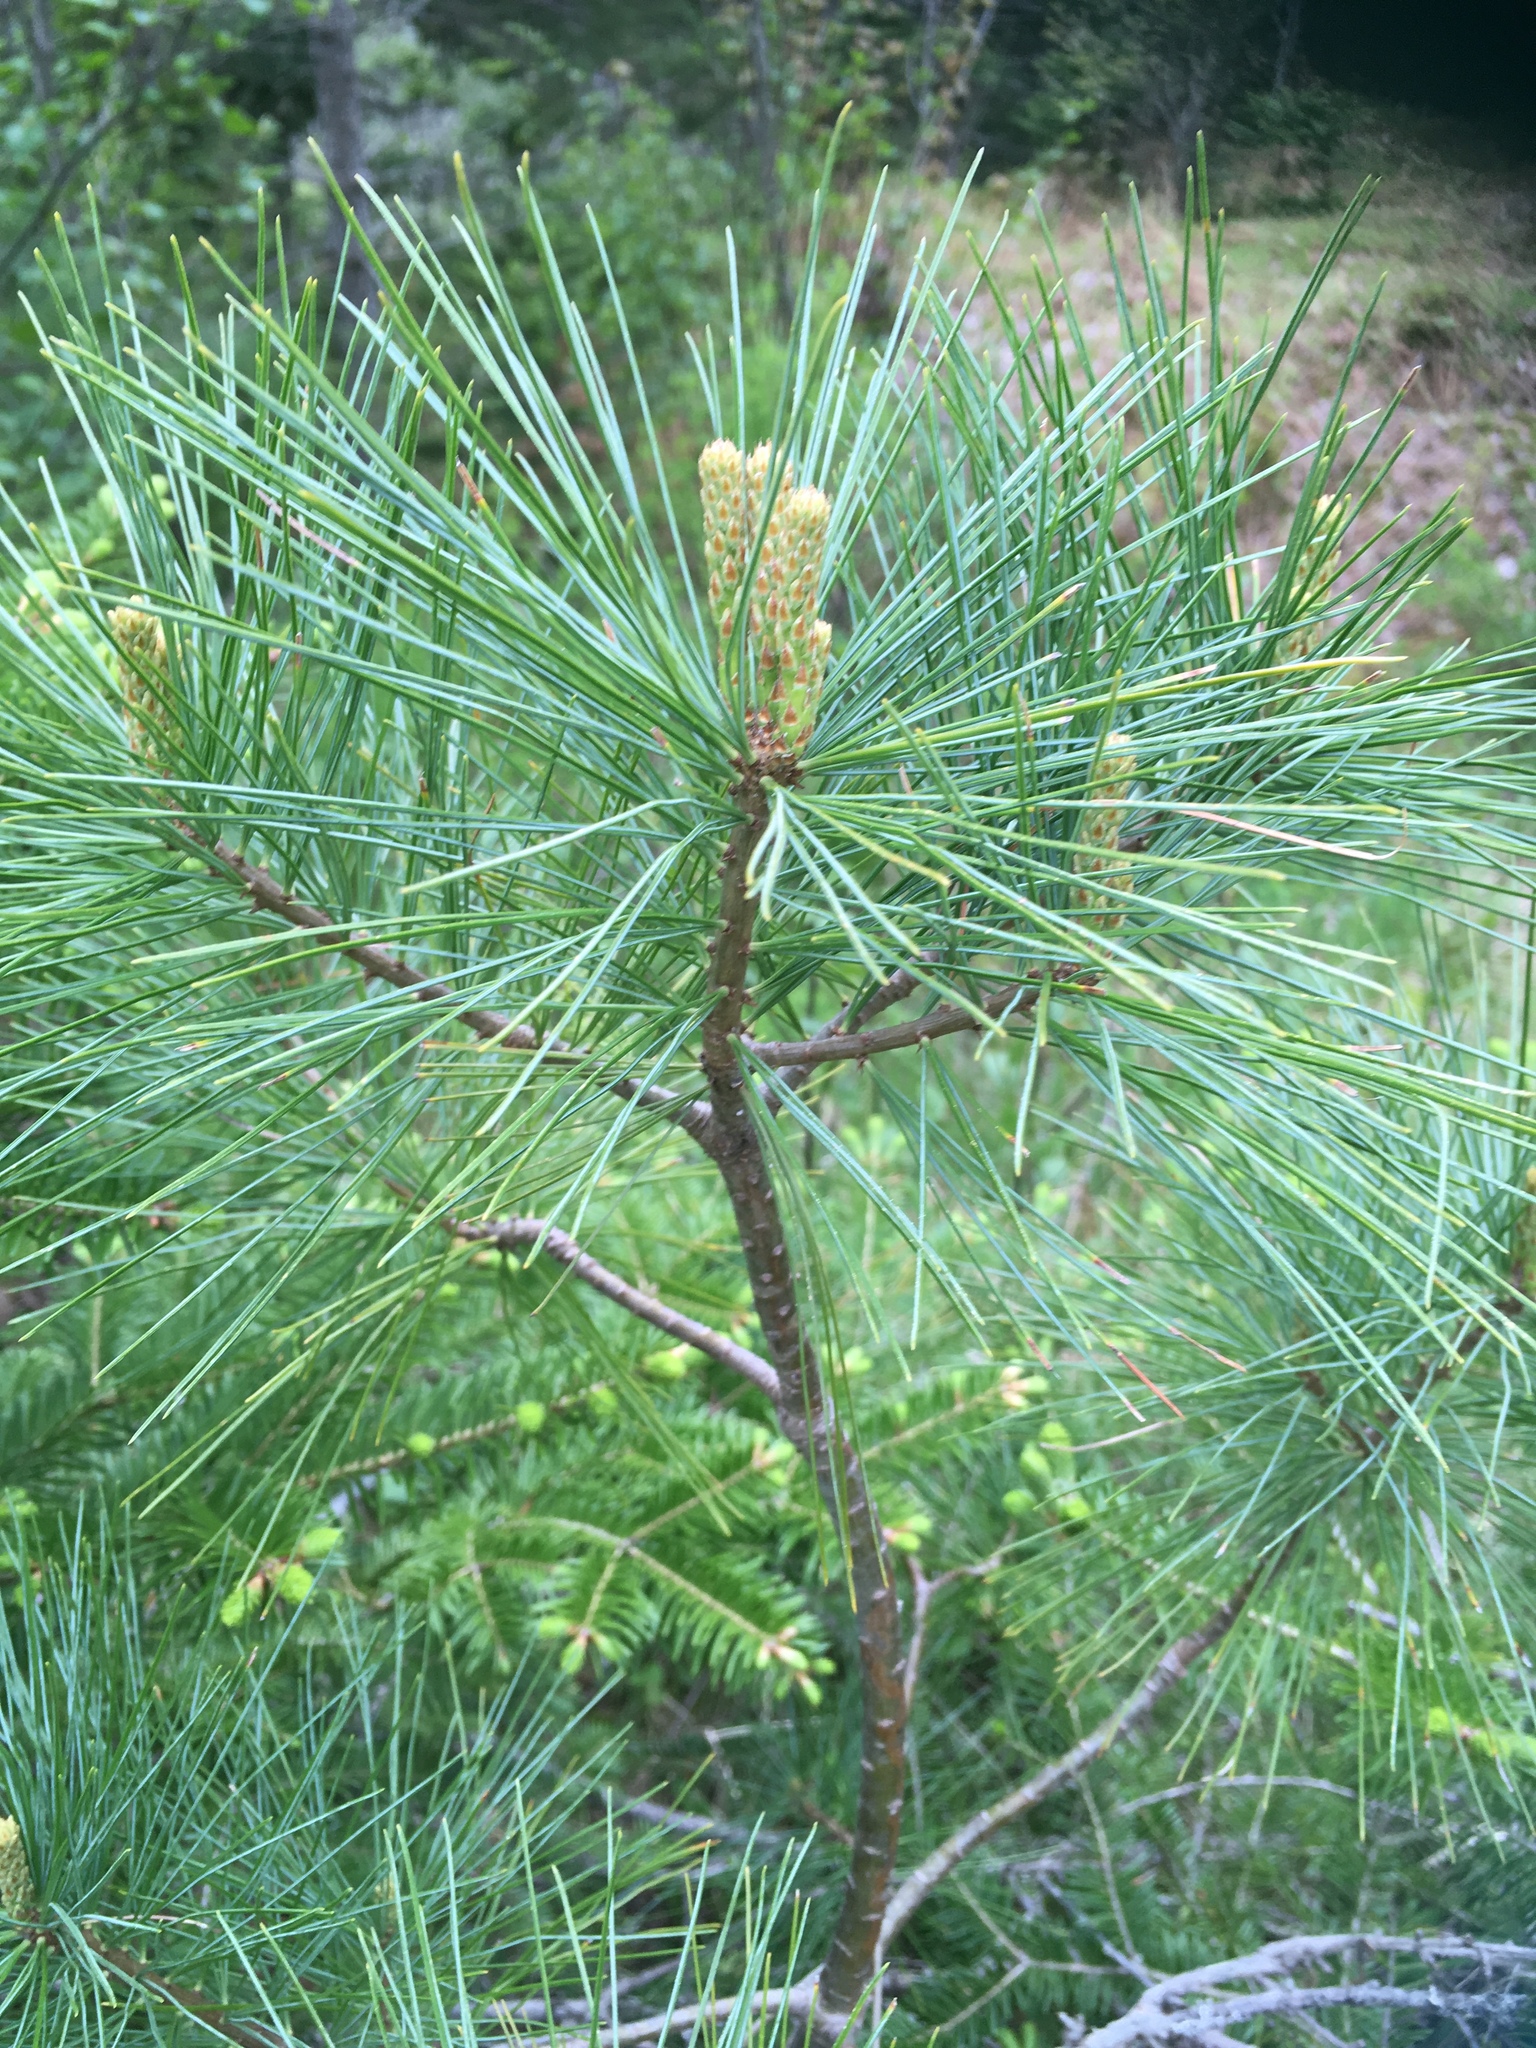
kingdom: Plantae
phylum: Tracheophyta
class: Pinopsida
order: Pinales
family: Pinaceae
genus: Pinus
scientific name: Pinus strobus
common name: Weymouth pine
